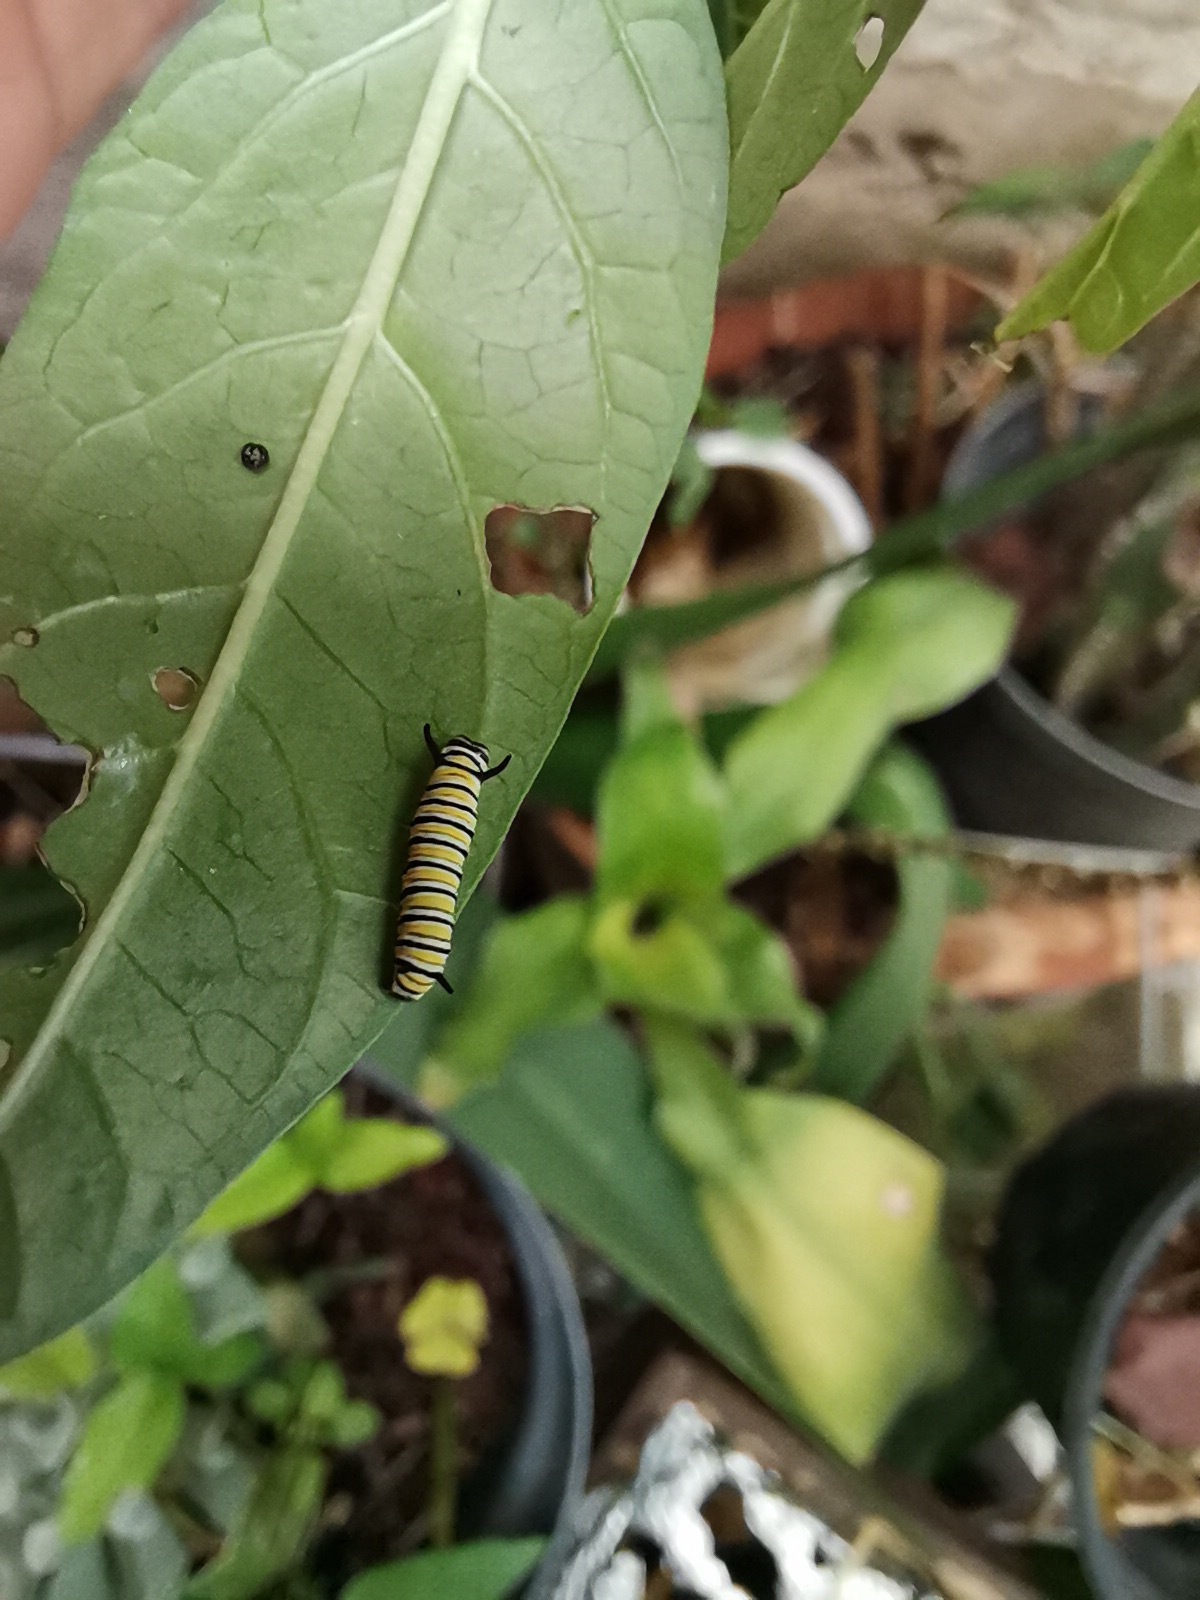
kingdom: Animalia
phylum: Arthropoda
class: Insecta
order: Lepidoptera
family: Nymphalidae
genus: Danaus
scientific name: Danaus plexippus
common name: Monarch
